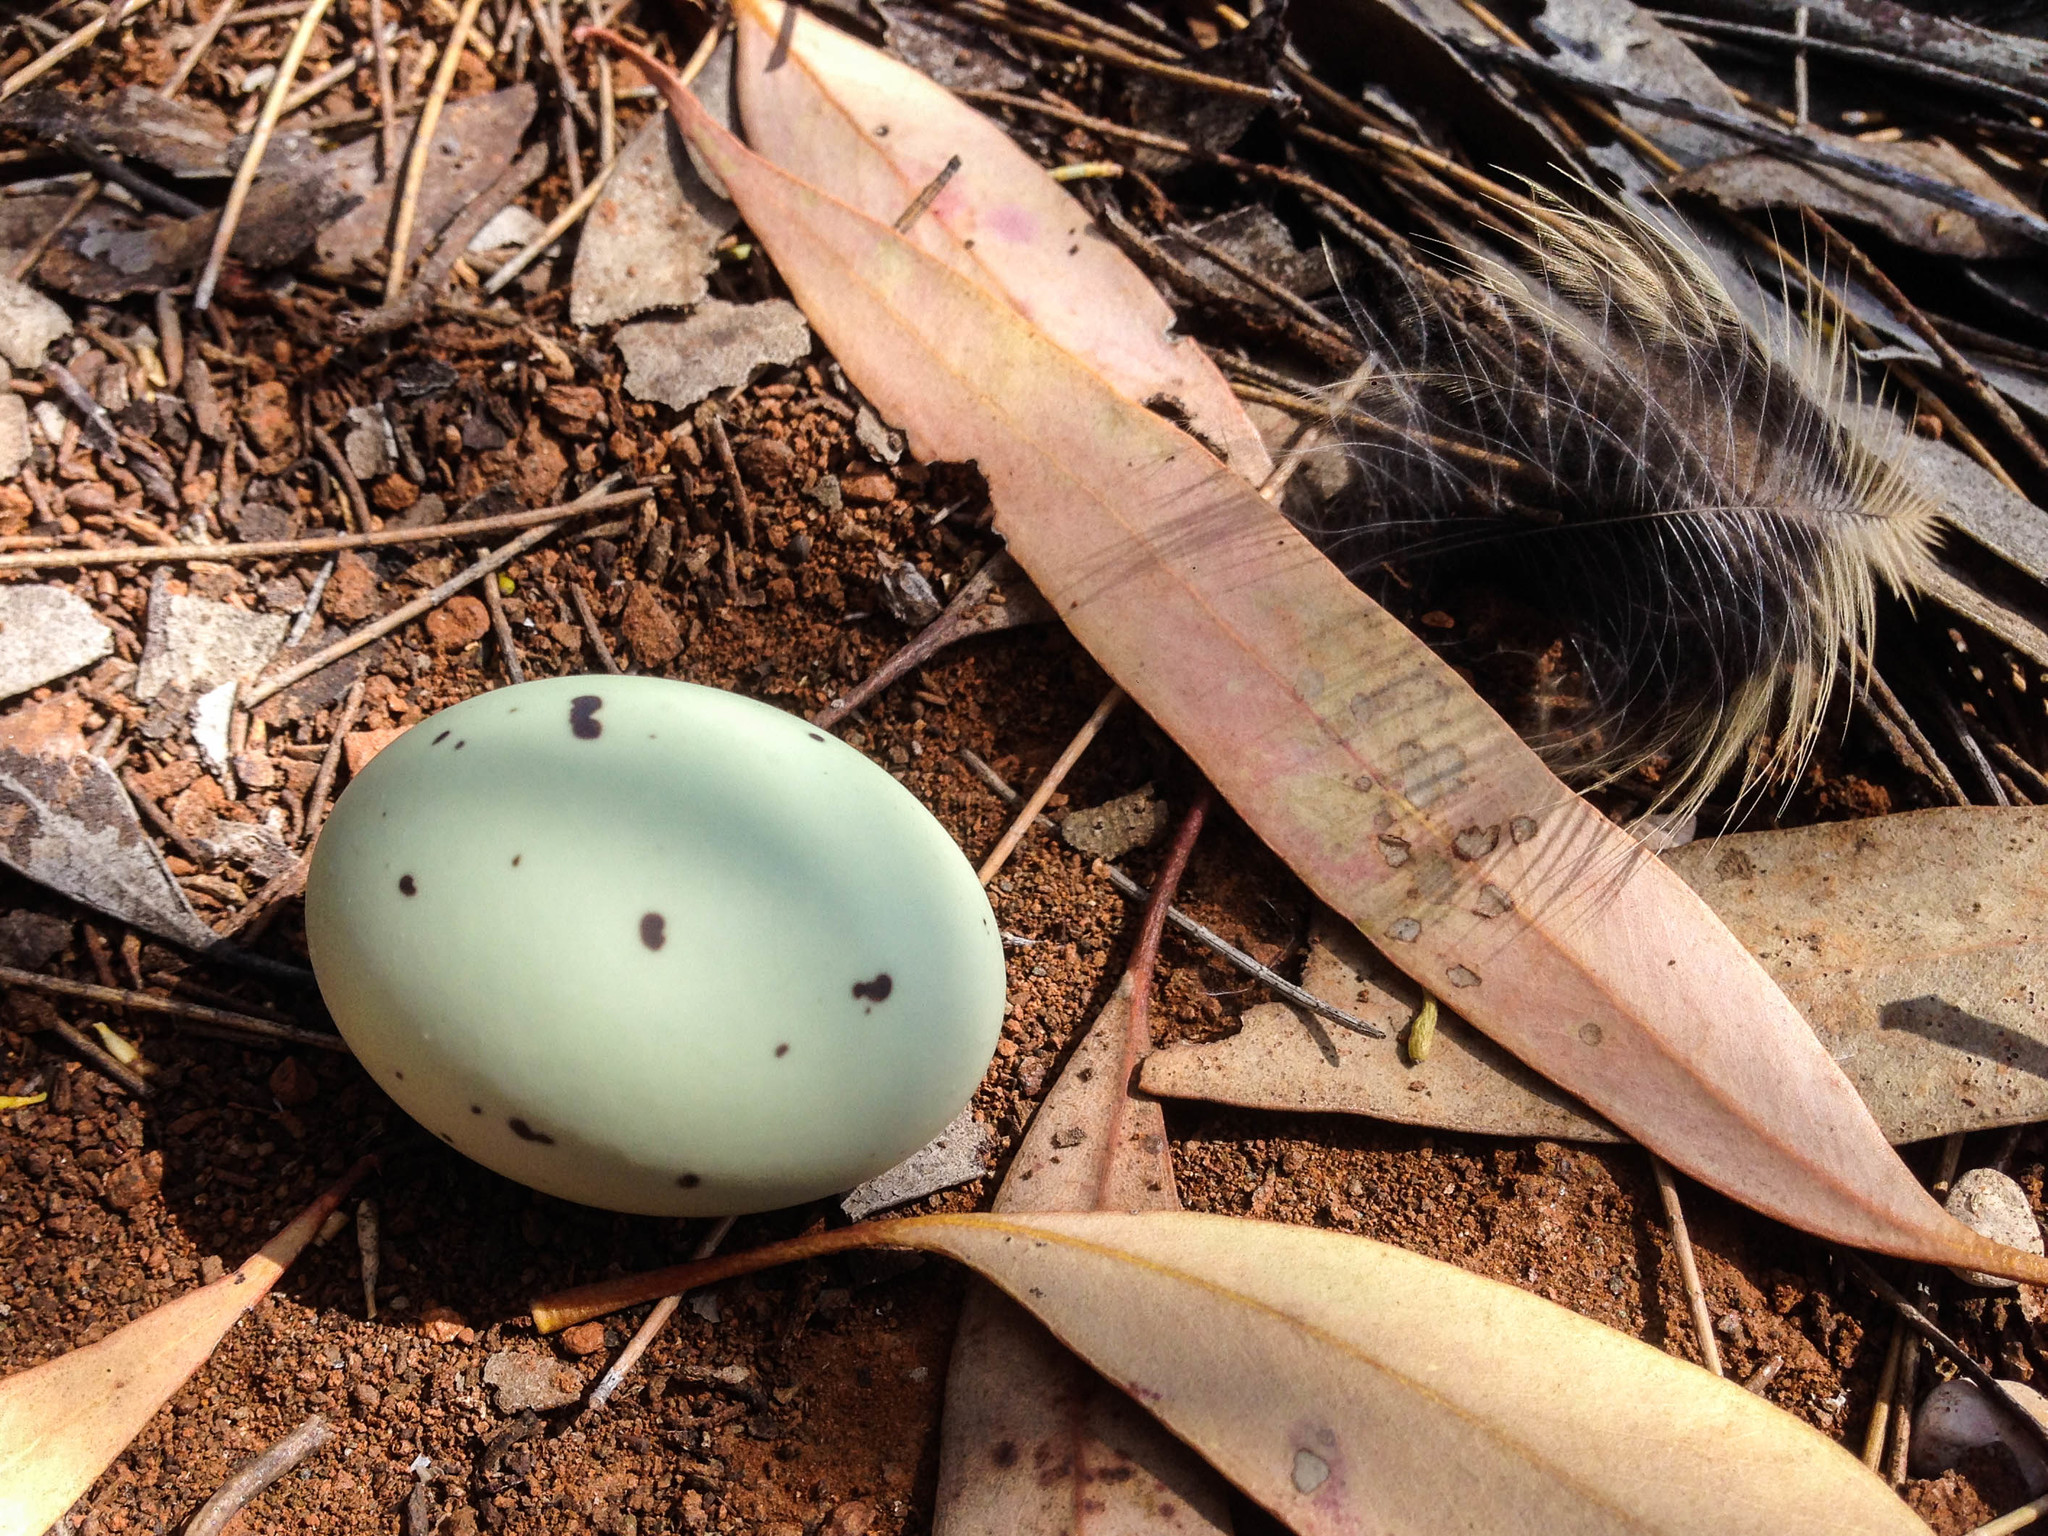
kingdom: Animalia
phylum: Chordata
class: Aves
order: Caprimulgiformes
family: Caprimulgidae
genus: Eurostopodus
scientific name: Eurostopodus argus
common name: Spotted nightjar
